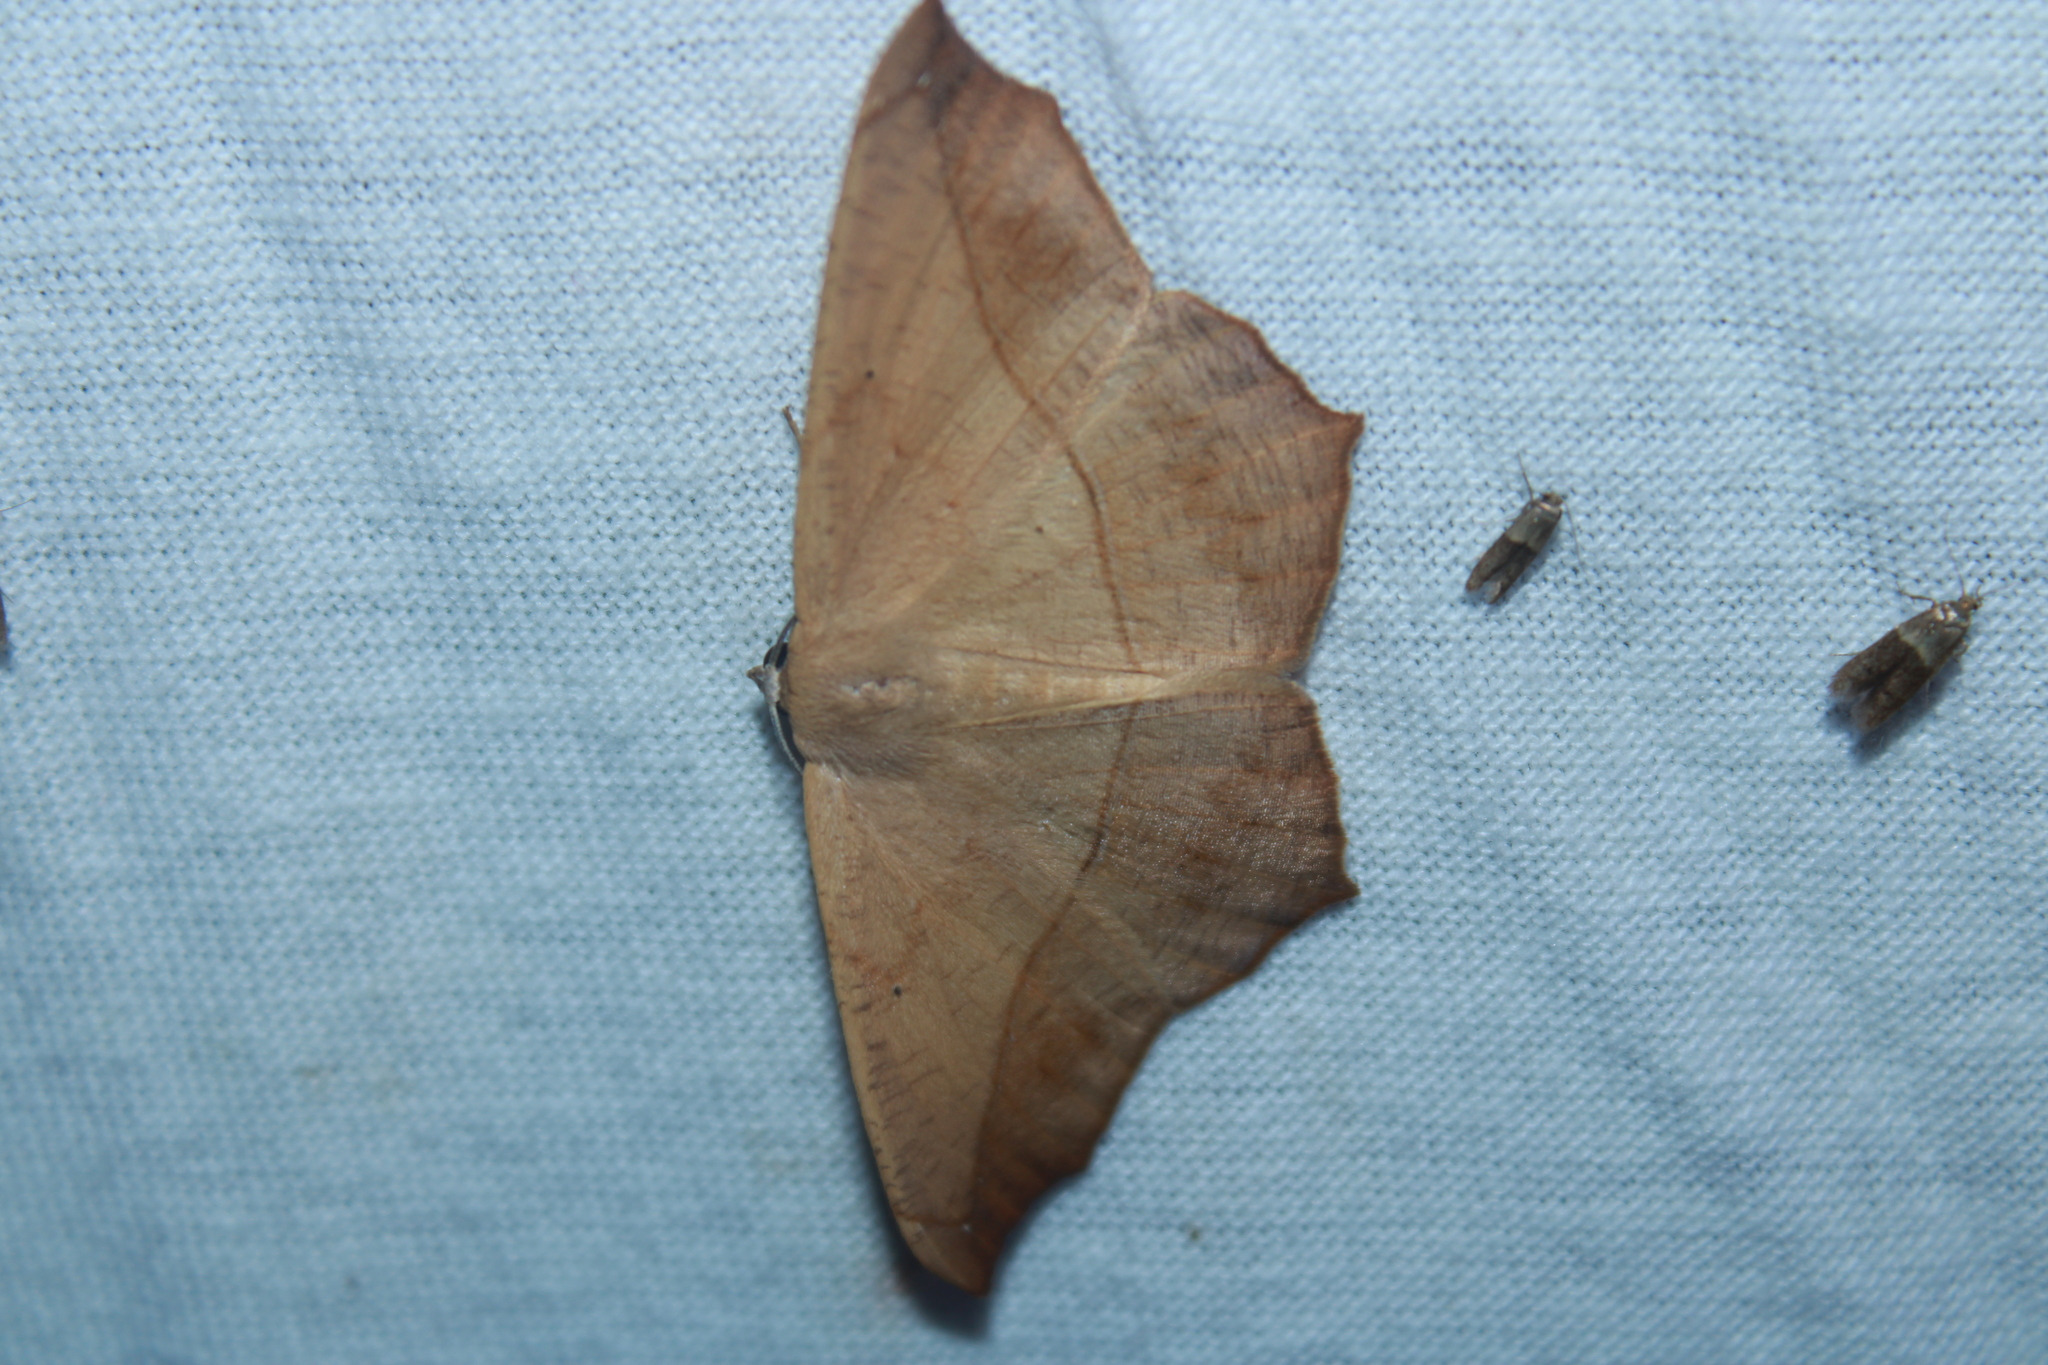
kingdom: Animalia
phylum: Arthropoda
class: Insecta
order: Lepidoptera
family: Geometridae
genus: Prochoerodes
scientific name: Prochoerodes lineola
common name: Large maple spanworm
